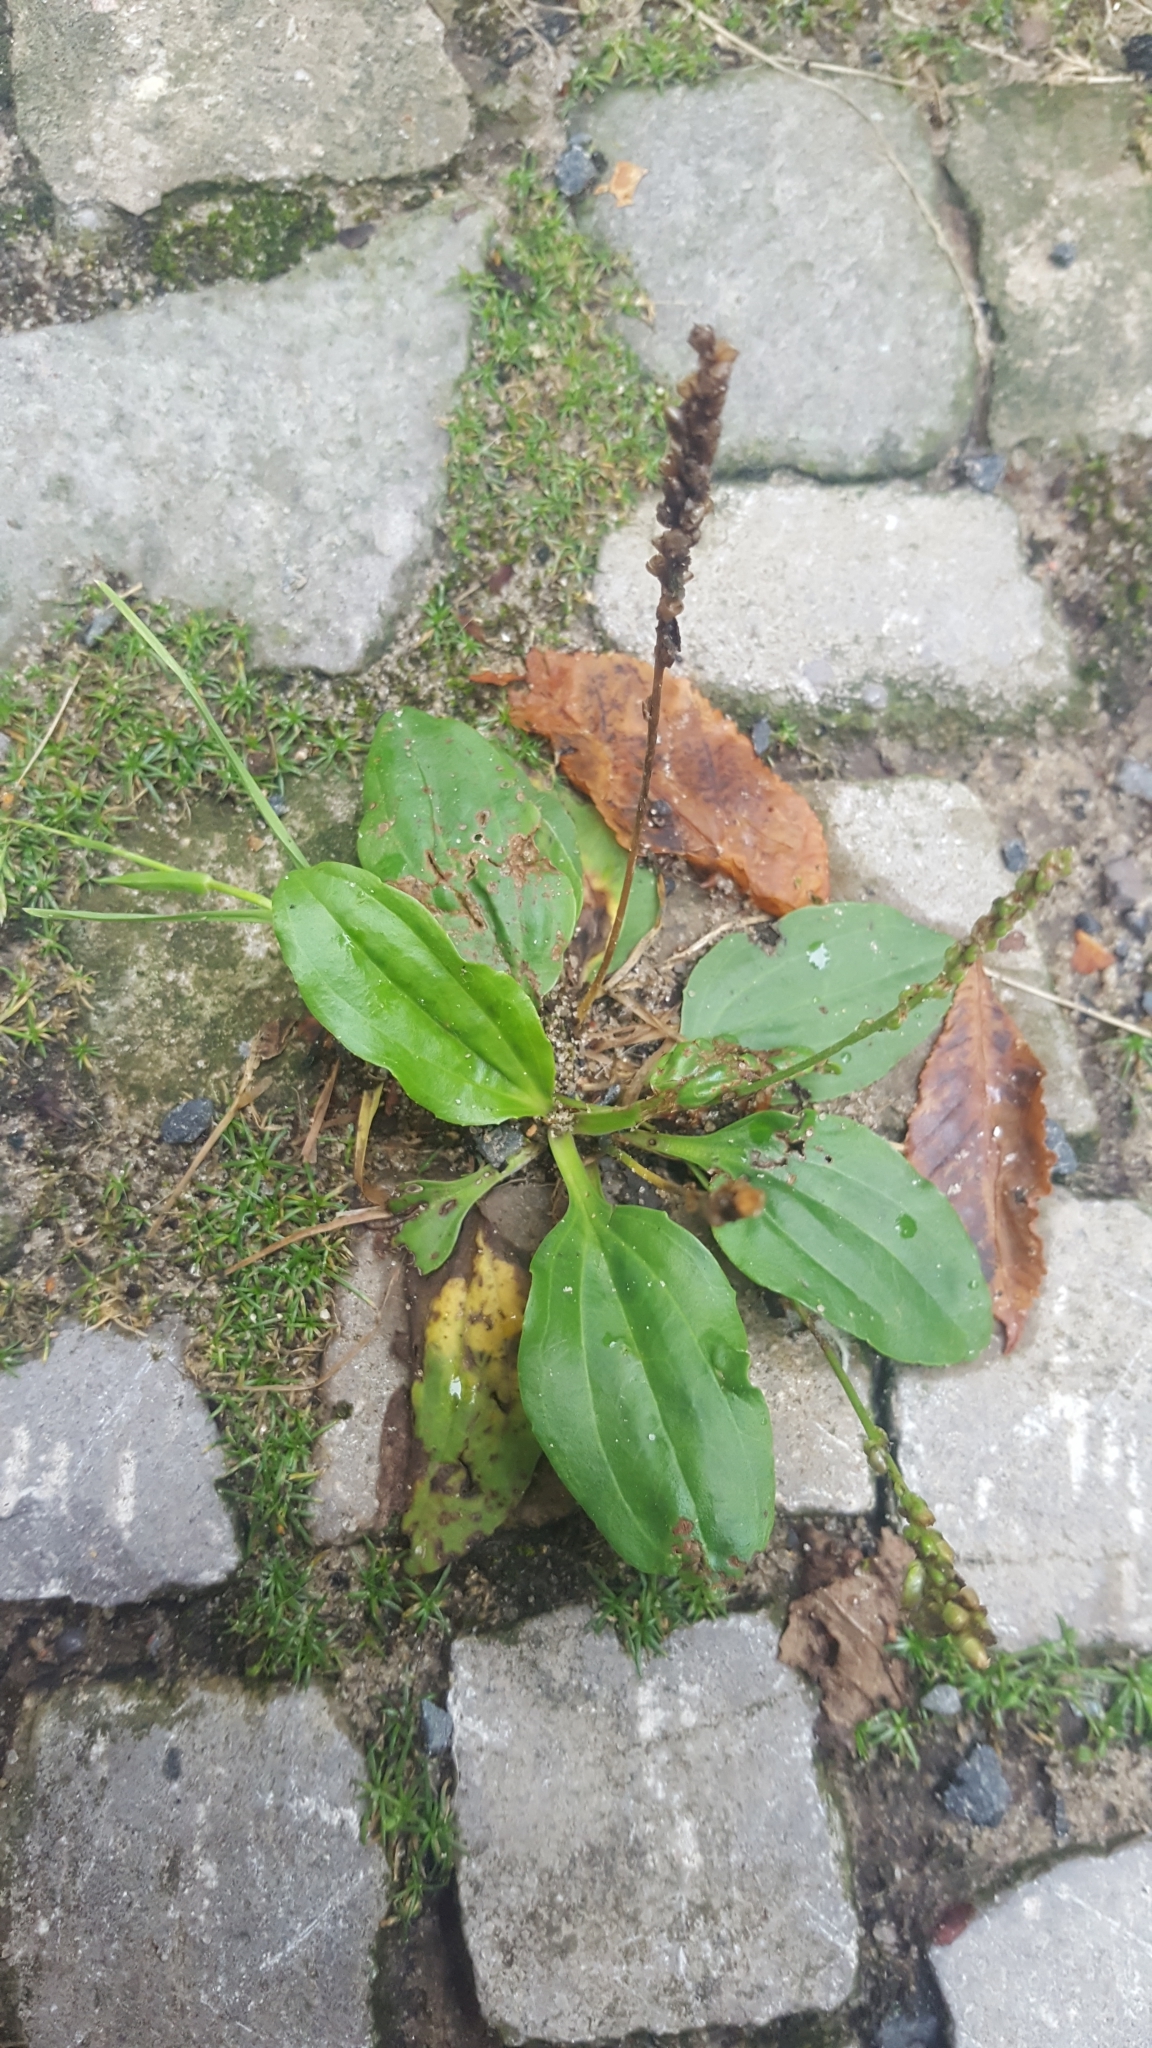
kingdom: Plantae
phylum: Tracheophyta
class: Magnoliopsida
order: Lamiales
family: Plantaginaceae
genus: Plantago
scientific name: Plantago major
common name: Common plantain
